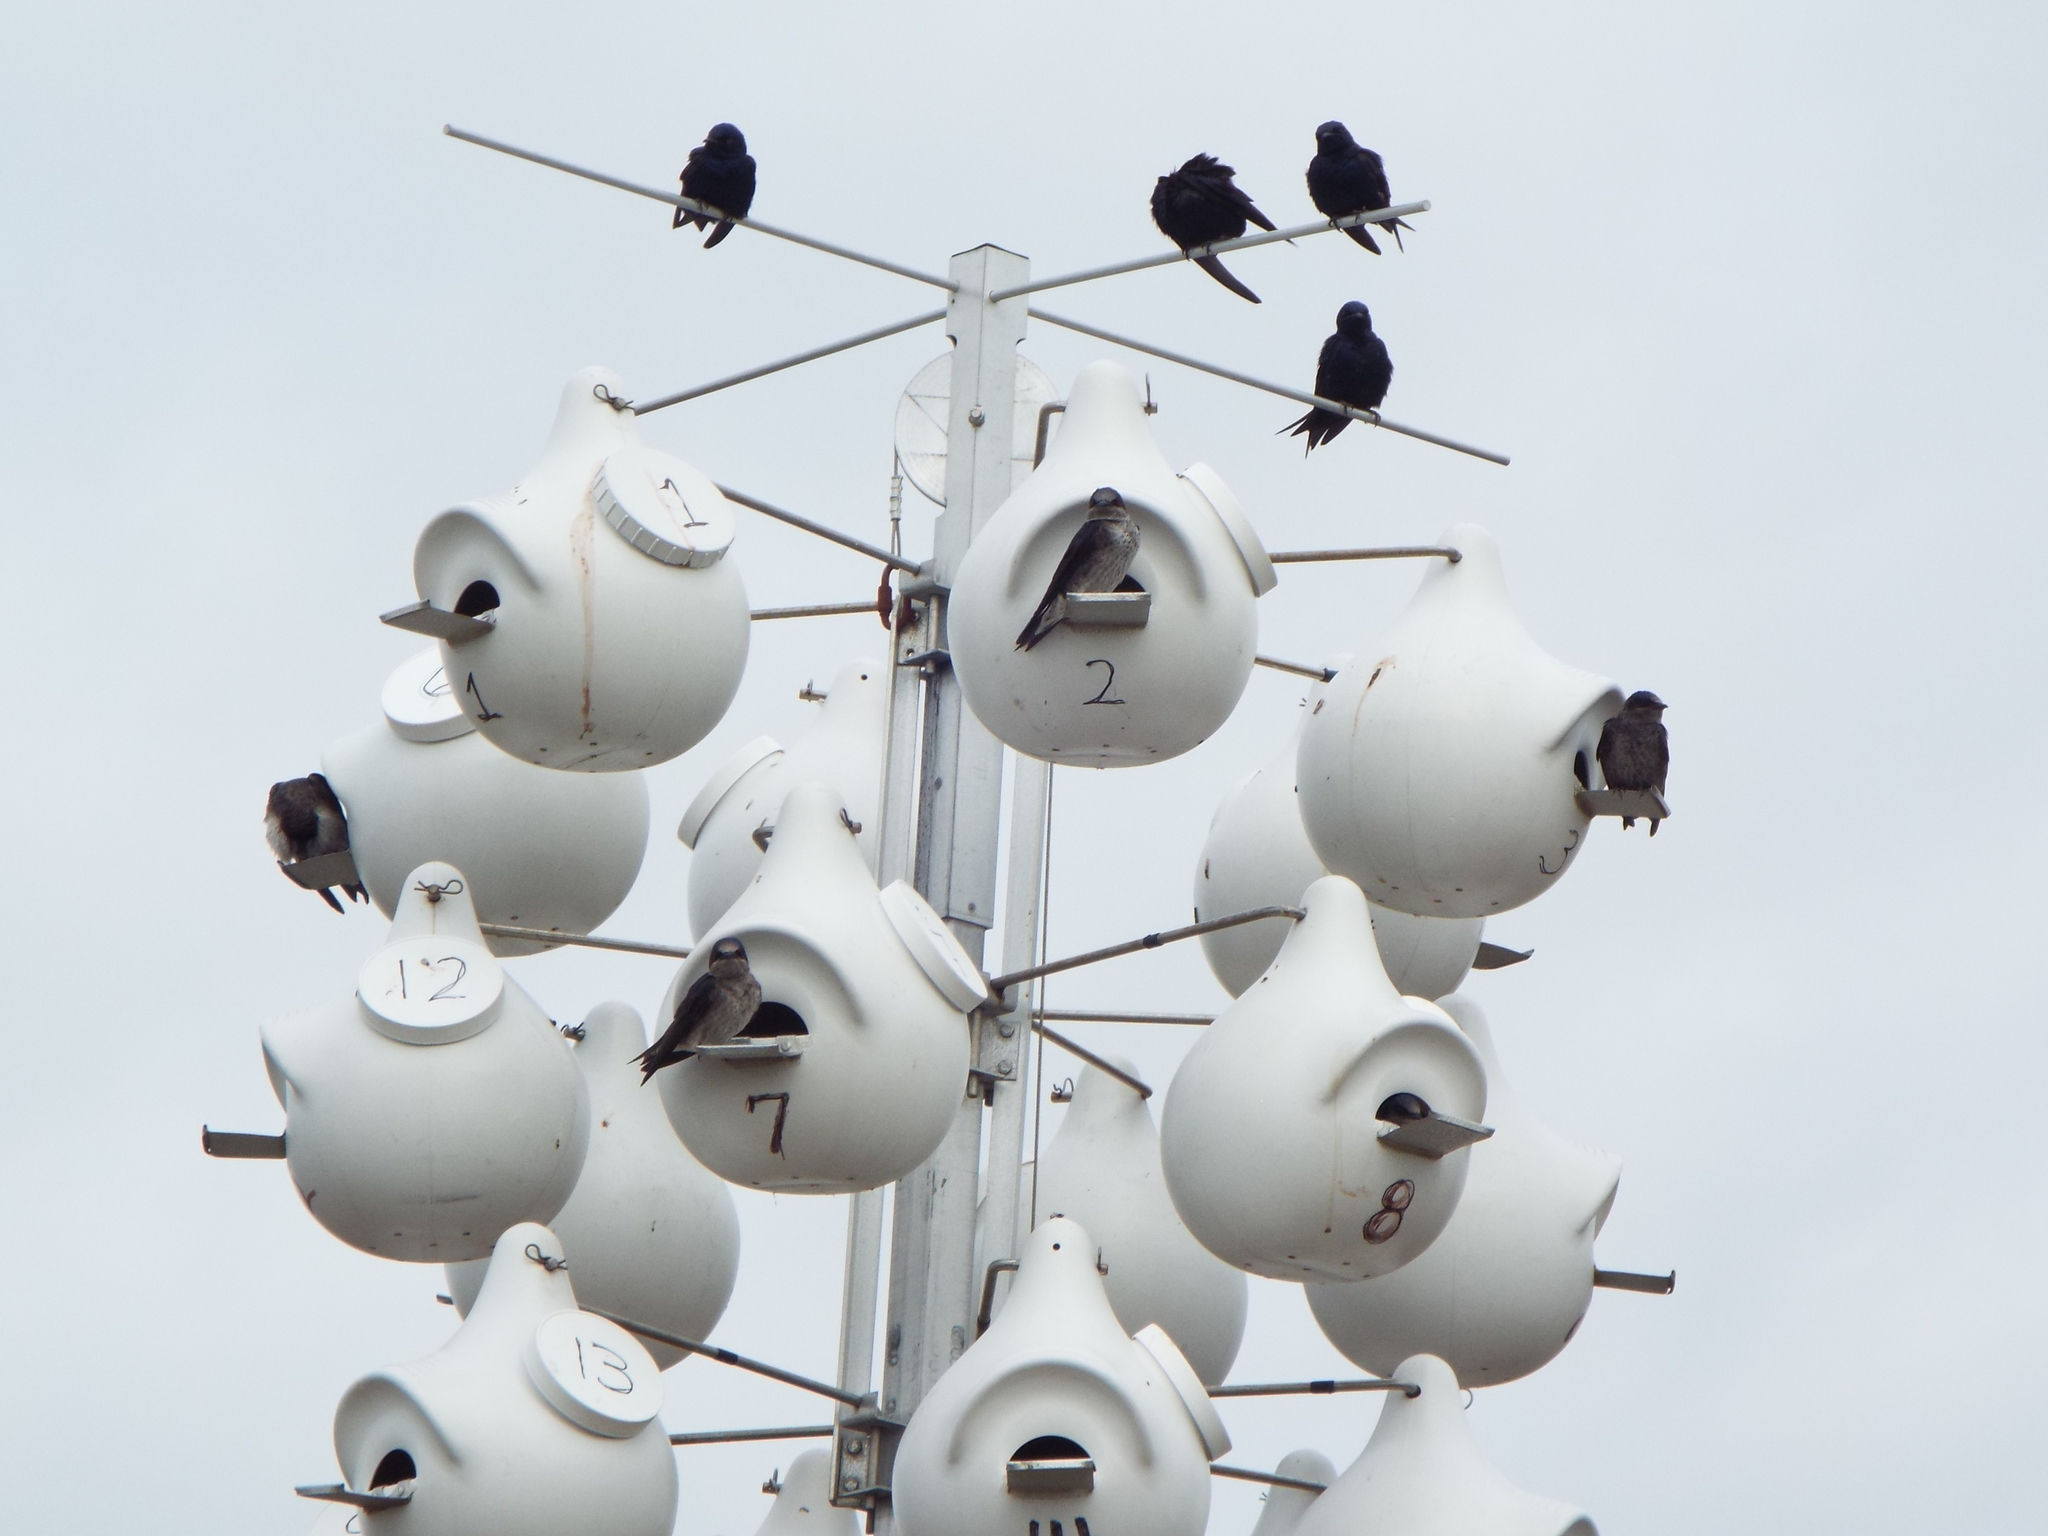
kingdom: Animalia
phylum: Chordata
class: Aves
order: Passeriformes
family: Hirundinidae
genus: Progne
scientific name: Progne subis
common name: Purple martin
